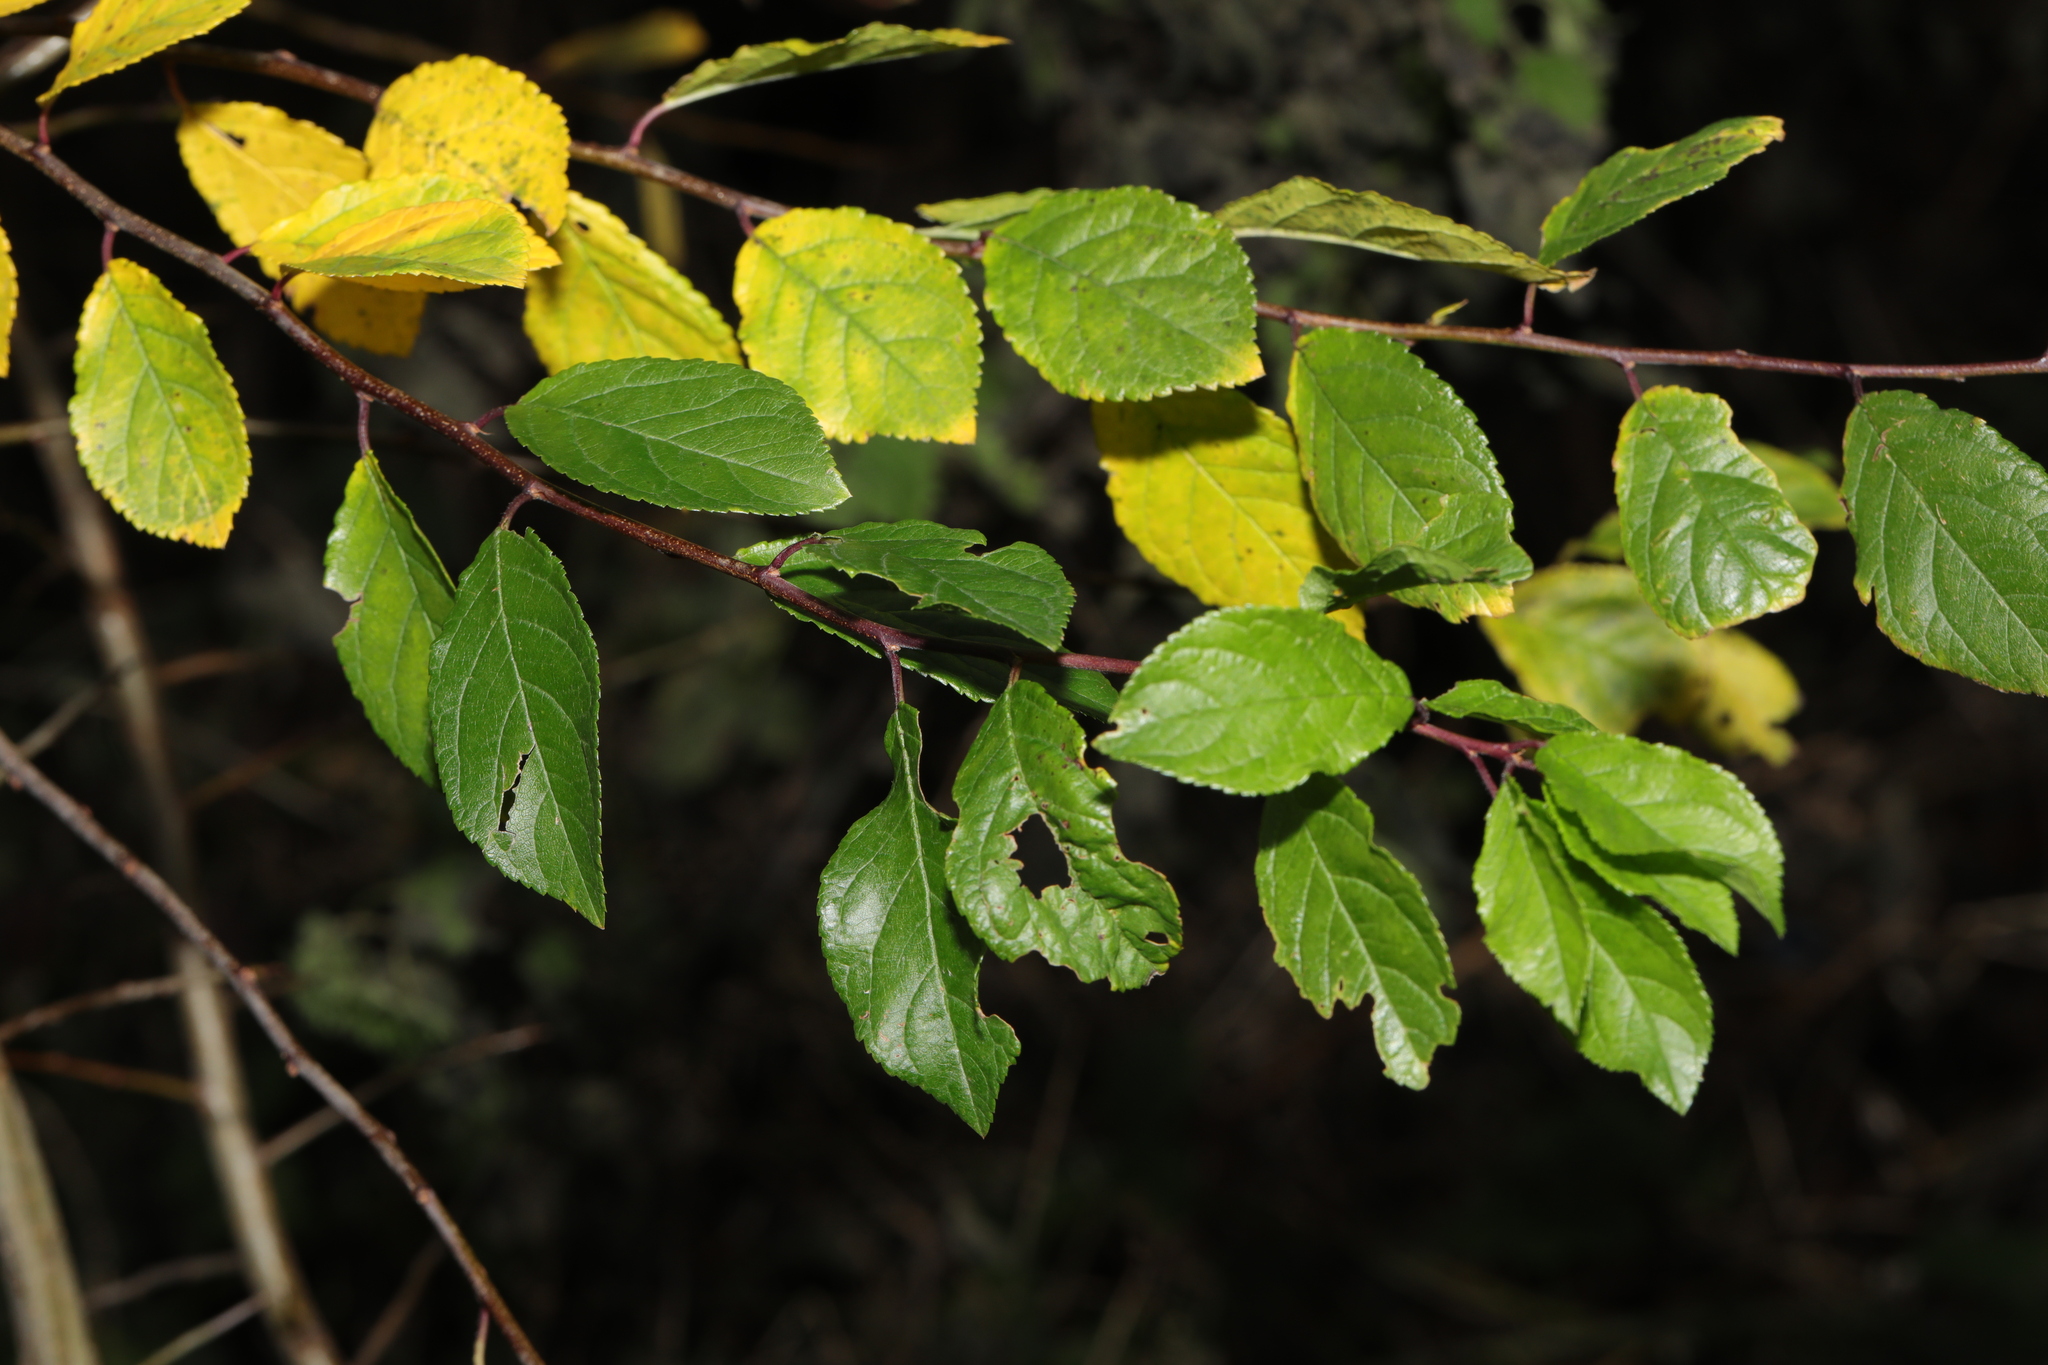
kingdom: Plantae
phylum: Tracheophyta
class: Magnoliopsida
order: Rosales
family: Rosaceae
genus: Prunus
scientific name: Prunus spinosa
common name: Blackthorn
